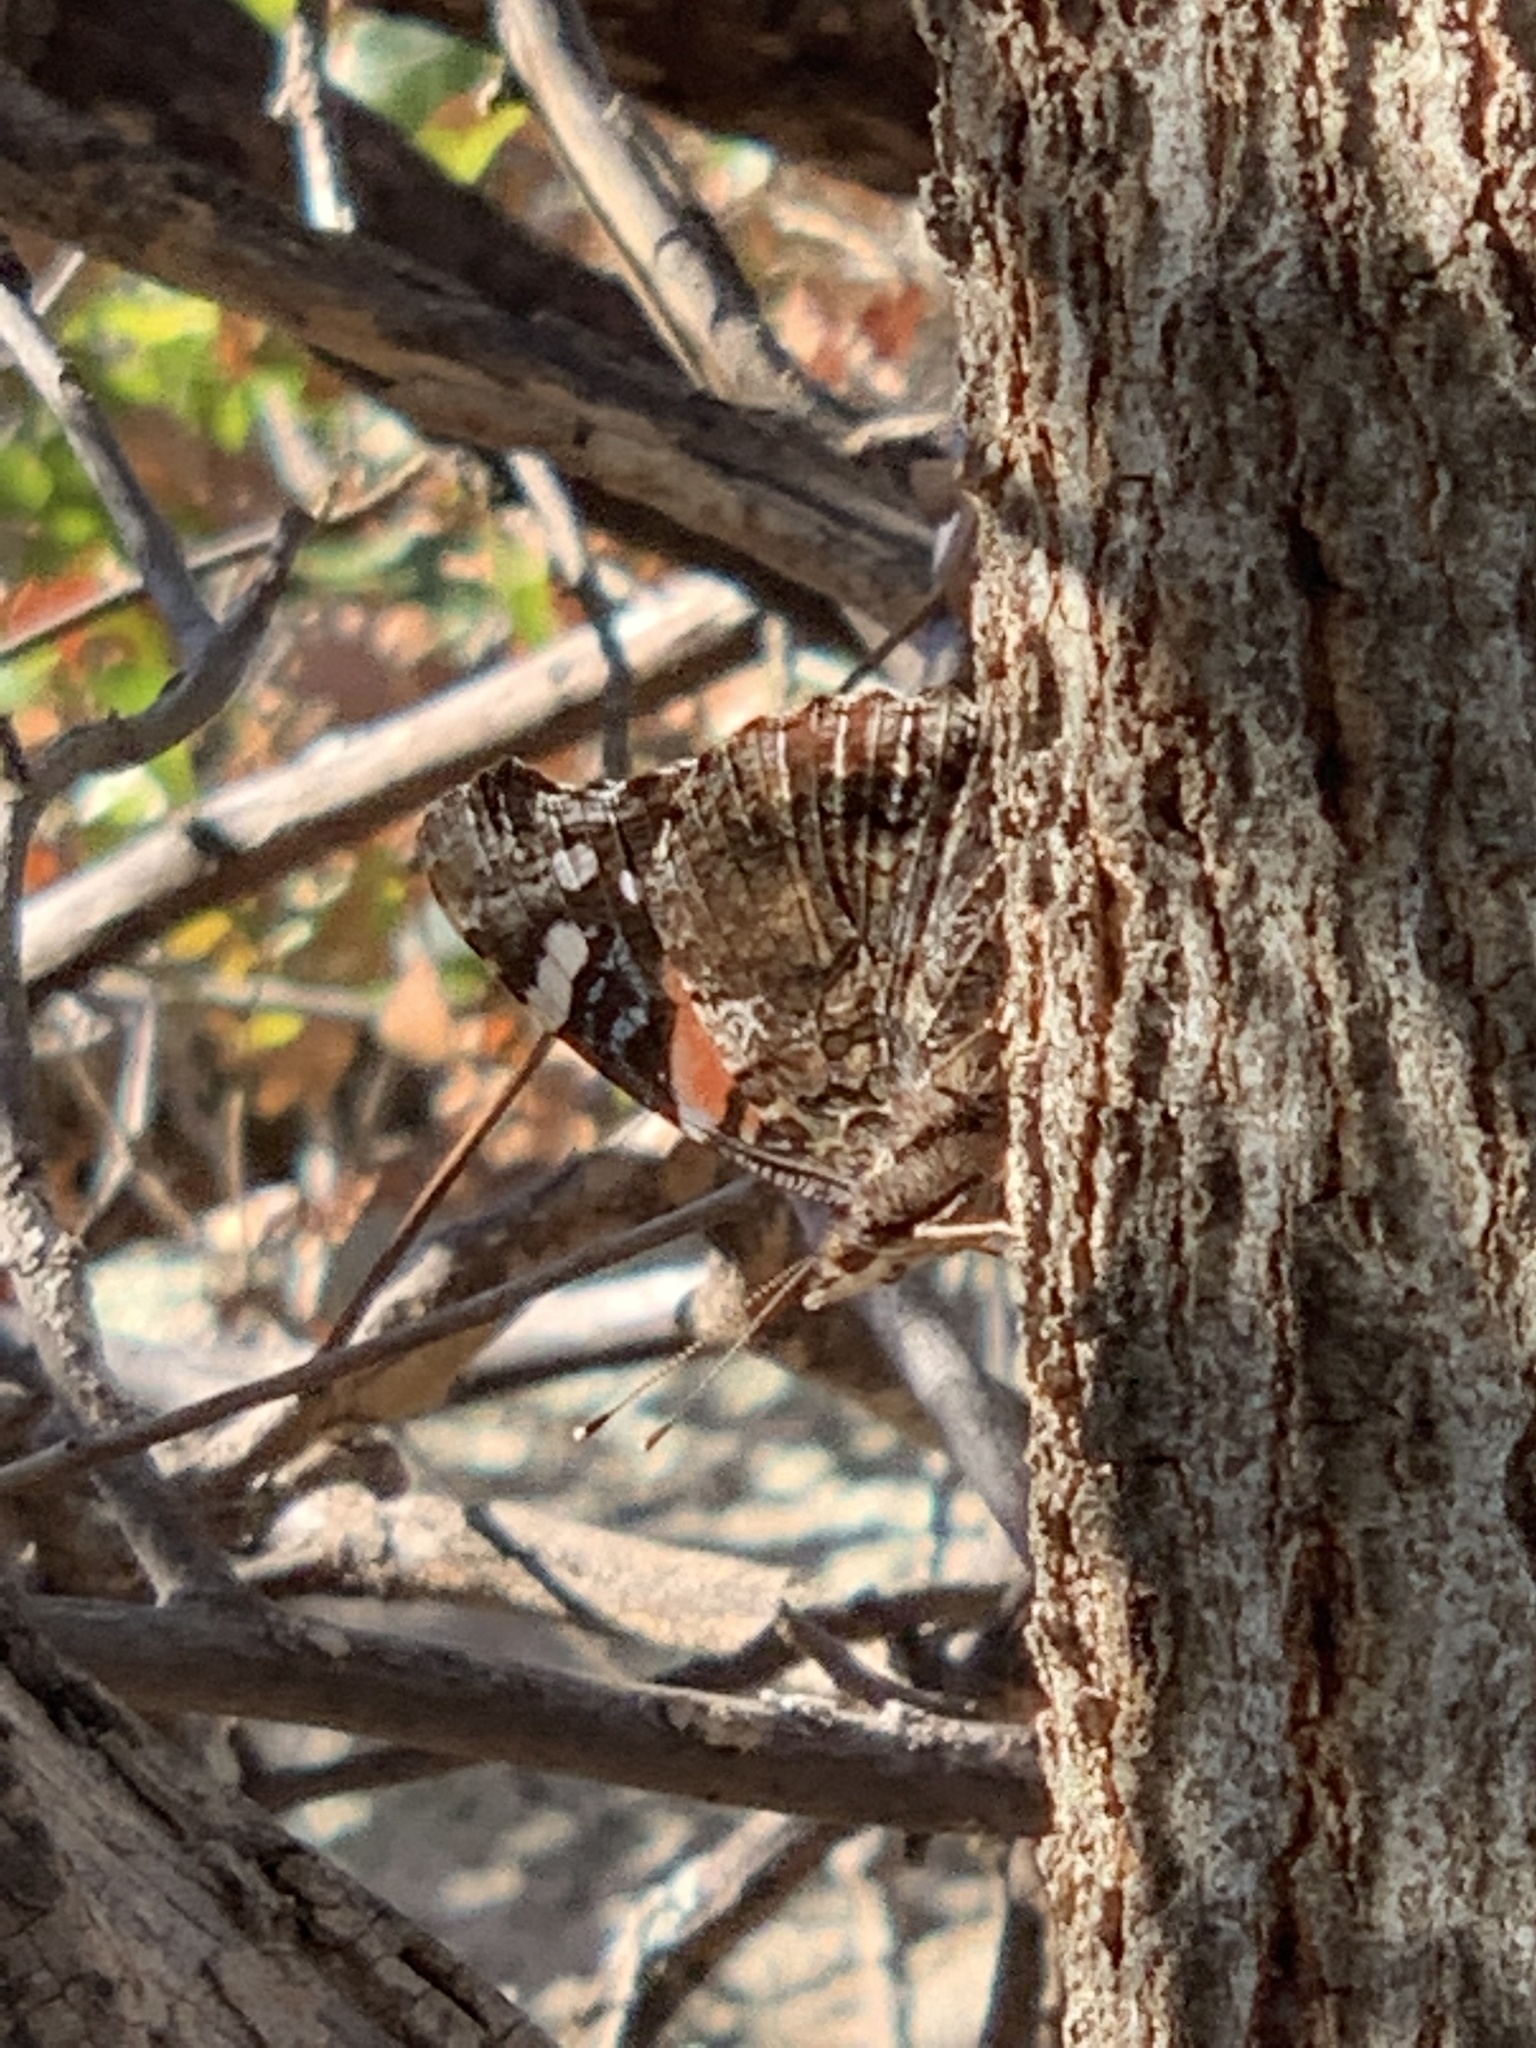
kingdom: Animalia
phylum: Arthropoda
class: Insecta
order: Lepidoptera
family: Nymphalidae
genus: Vanessa
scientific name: Vanessa atalanta
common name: Red admiral
